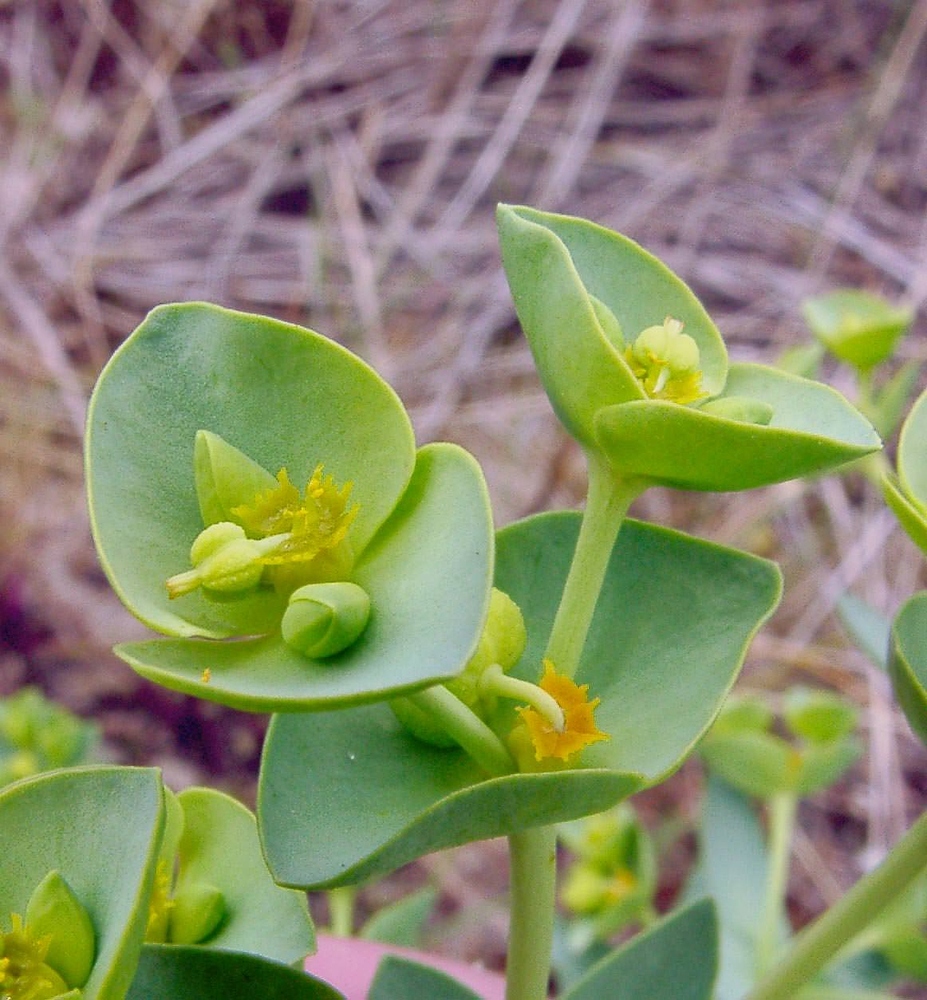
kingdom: Plantae
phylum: Tracheophyta
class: Magnoliopsida
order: Malpighiales
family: Euphorbiaceae
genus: Euphorbia
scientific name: Euphorbia paralias
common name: Sea spurge
